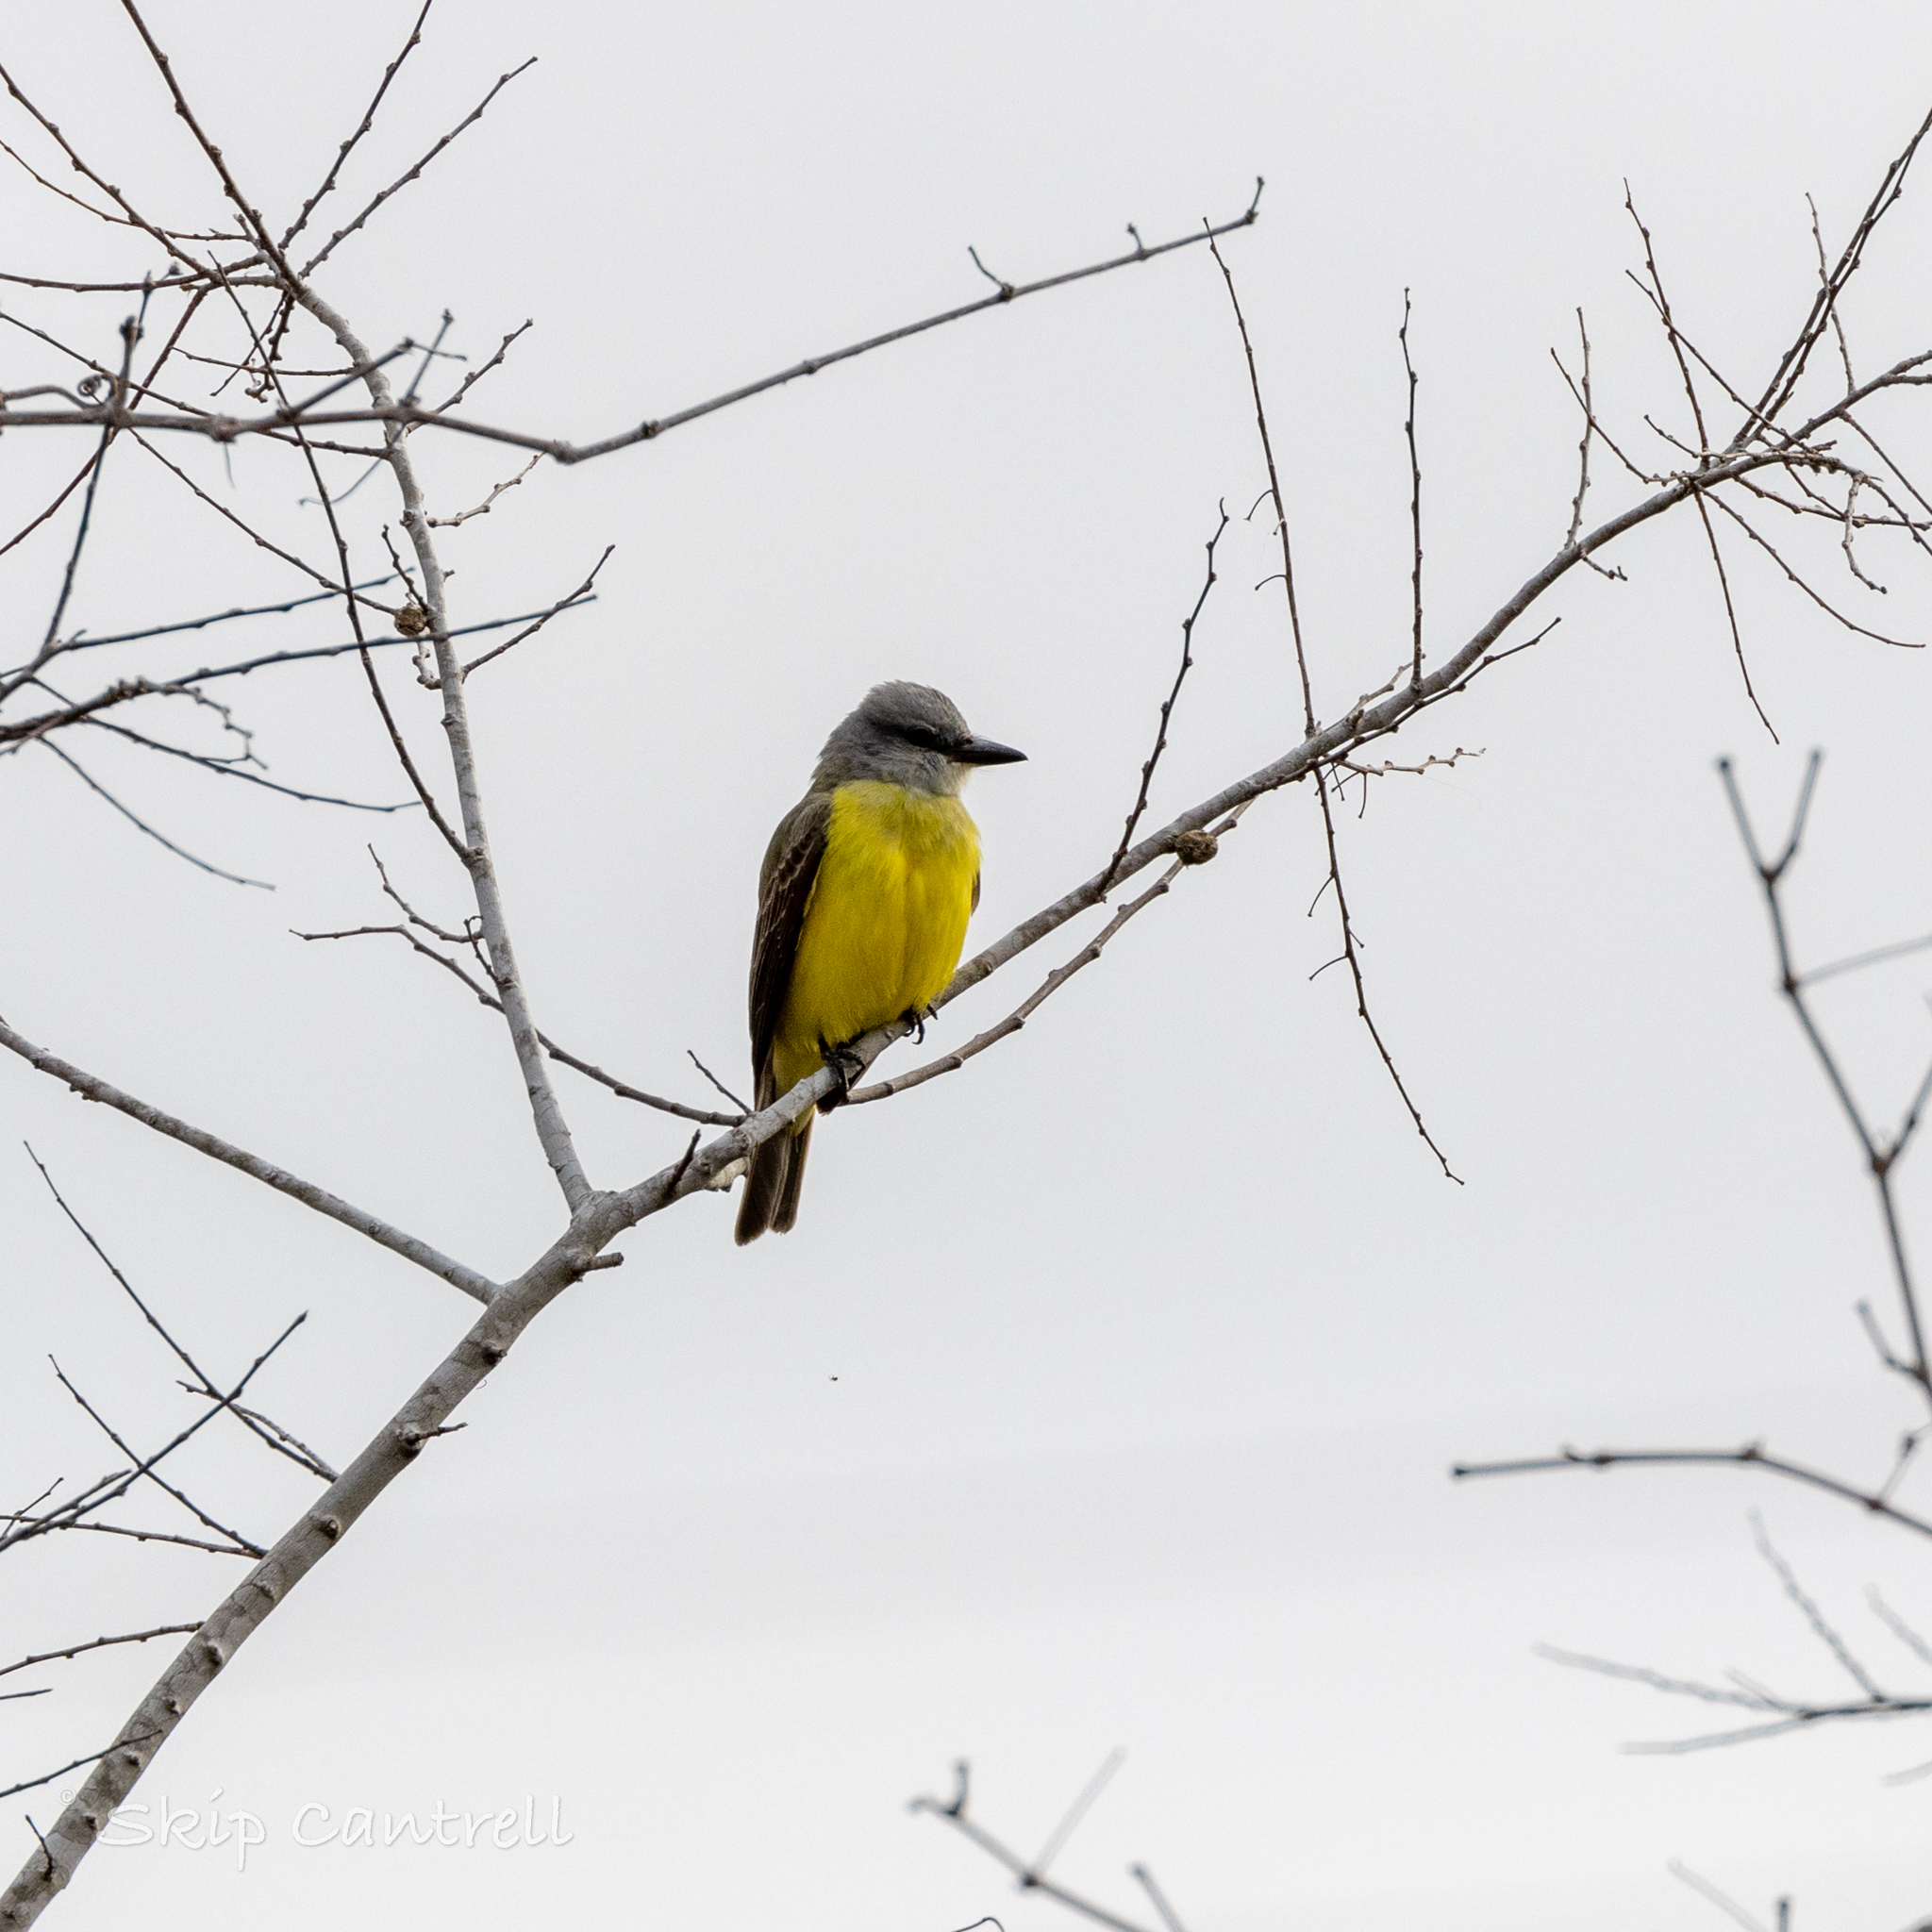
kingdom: Animalia
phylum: Chordata
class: Aves
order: Passeriformes
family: Tyrannidae
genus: Tyrannus
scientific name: Tyrannus couchii
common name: Couch's kingbird
